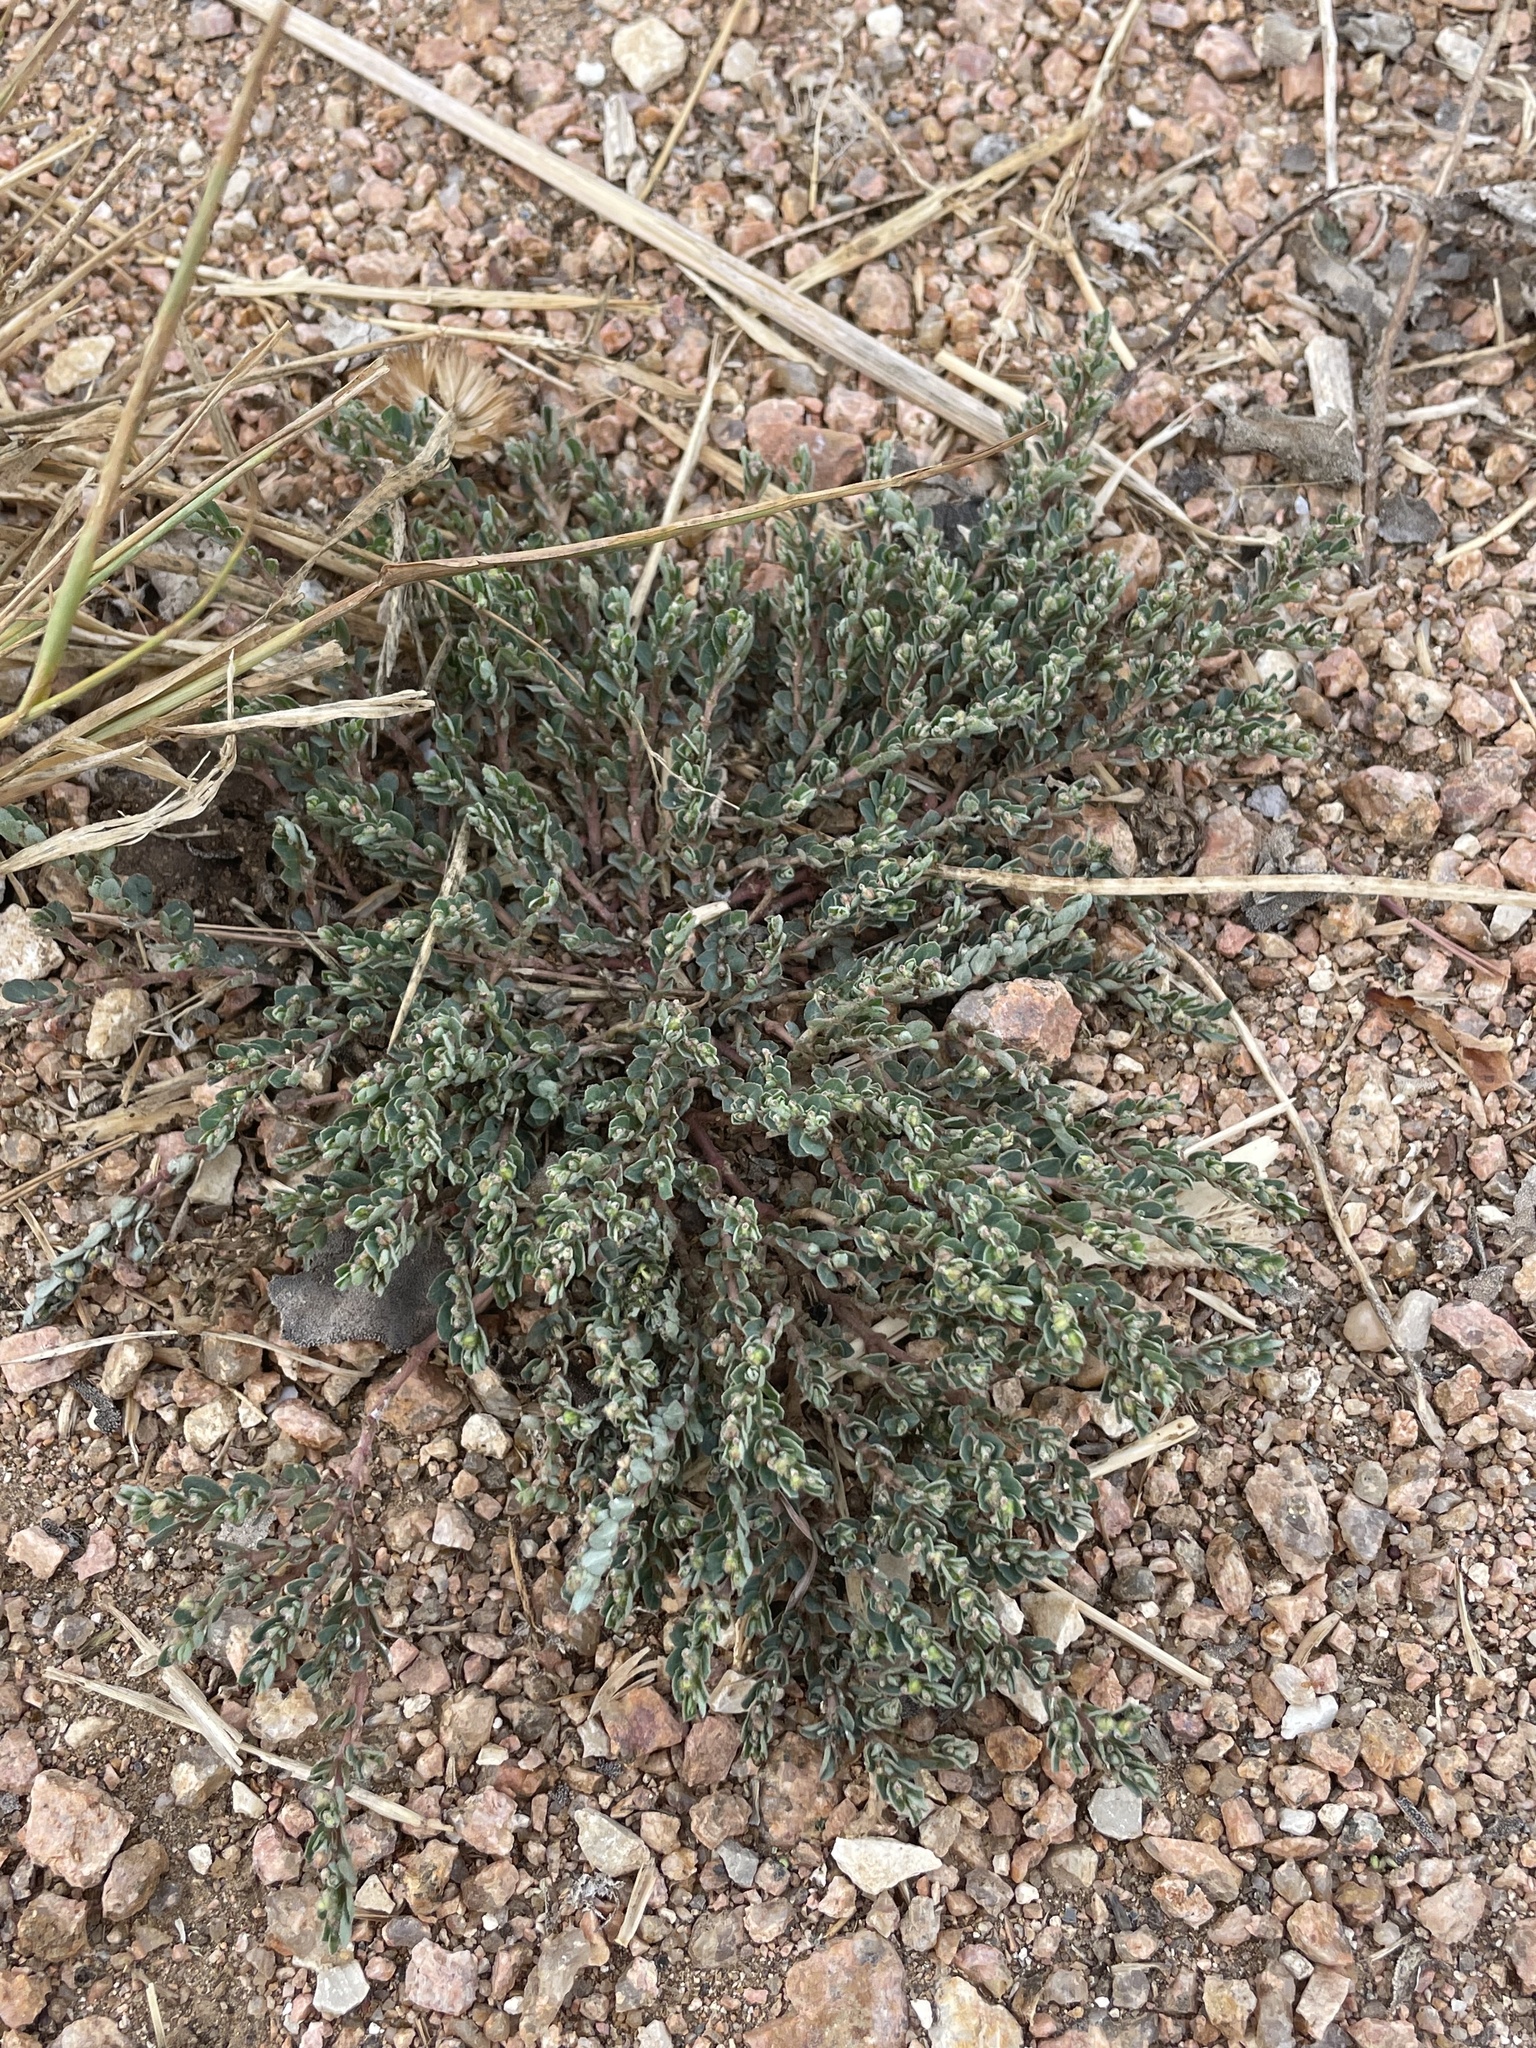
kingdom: Plantae
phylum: Tracheophyta
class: Magnoliopsida
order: Malpighiales
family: Euphorbiaceae
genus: Euphorbia
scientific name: Euphorbia prostrata
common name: Prostrate sandmat
